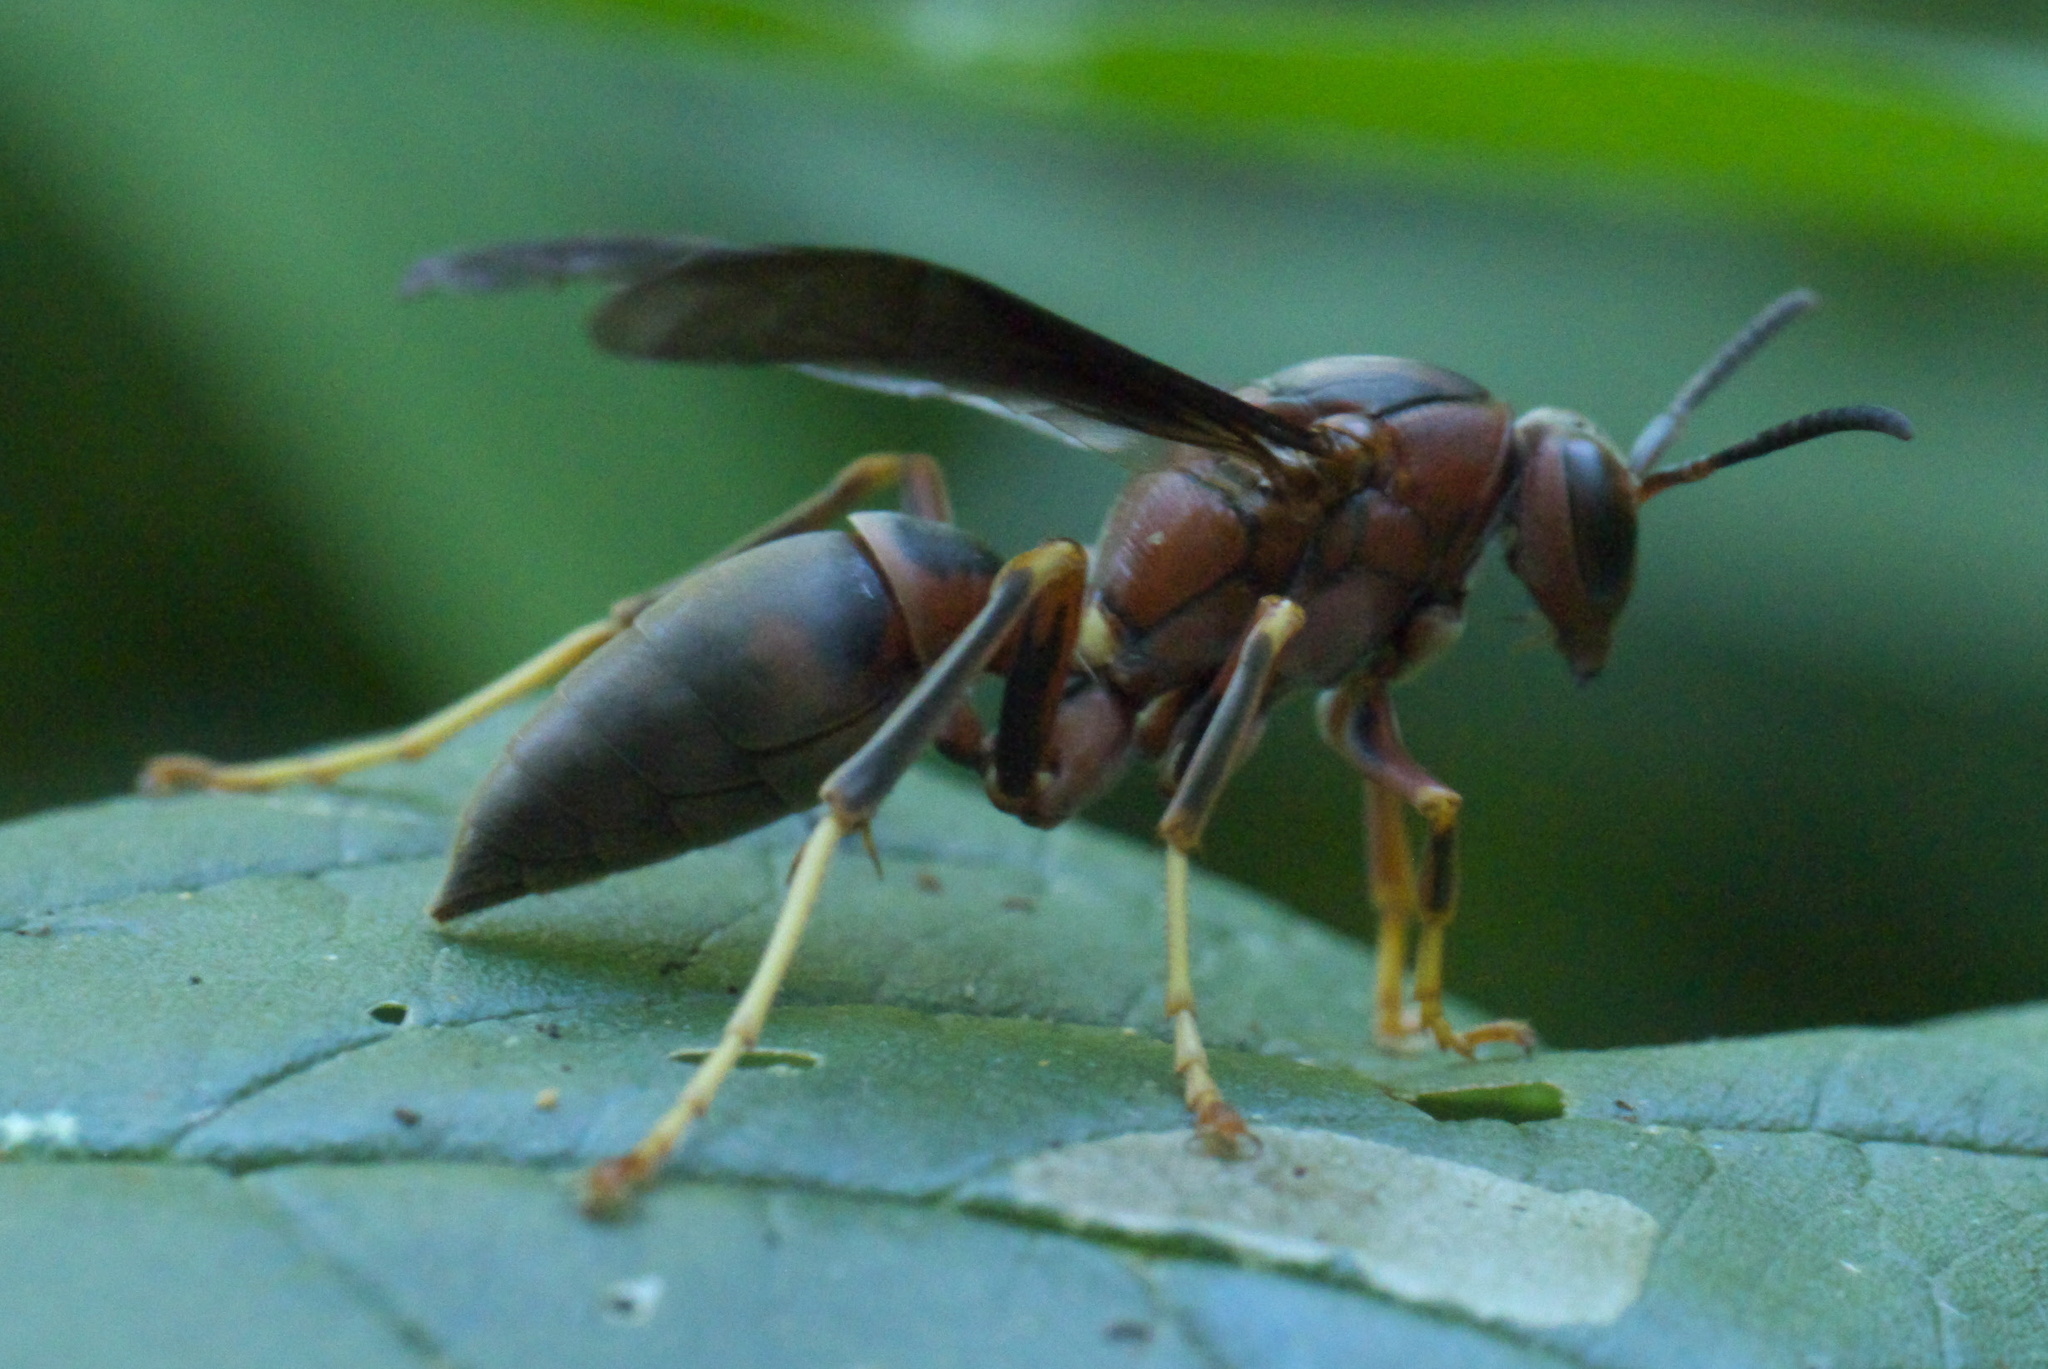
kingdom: Animalia
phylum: Arthropoda
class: Insecta
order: Hymenoptera
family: Eumenidae
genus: Polistes
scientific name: Polistes metricus
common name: Metric paper wasp
